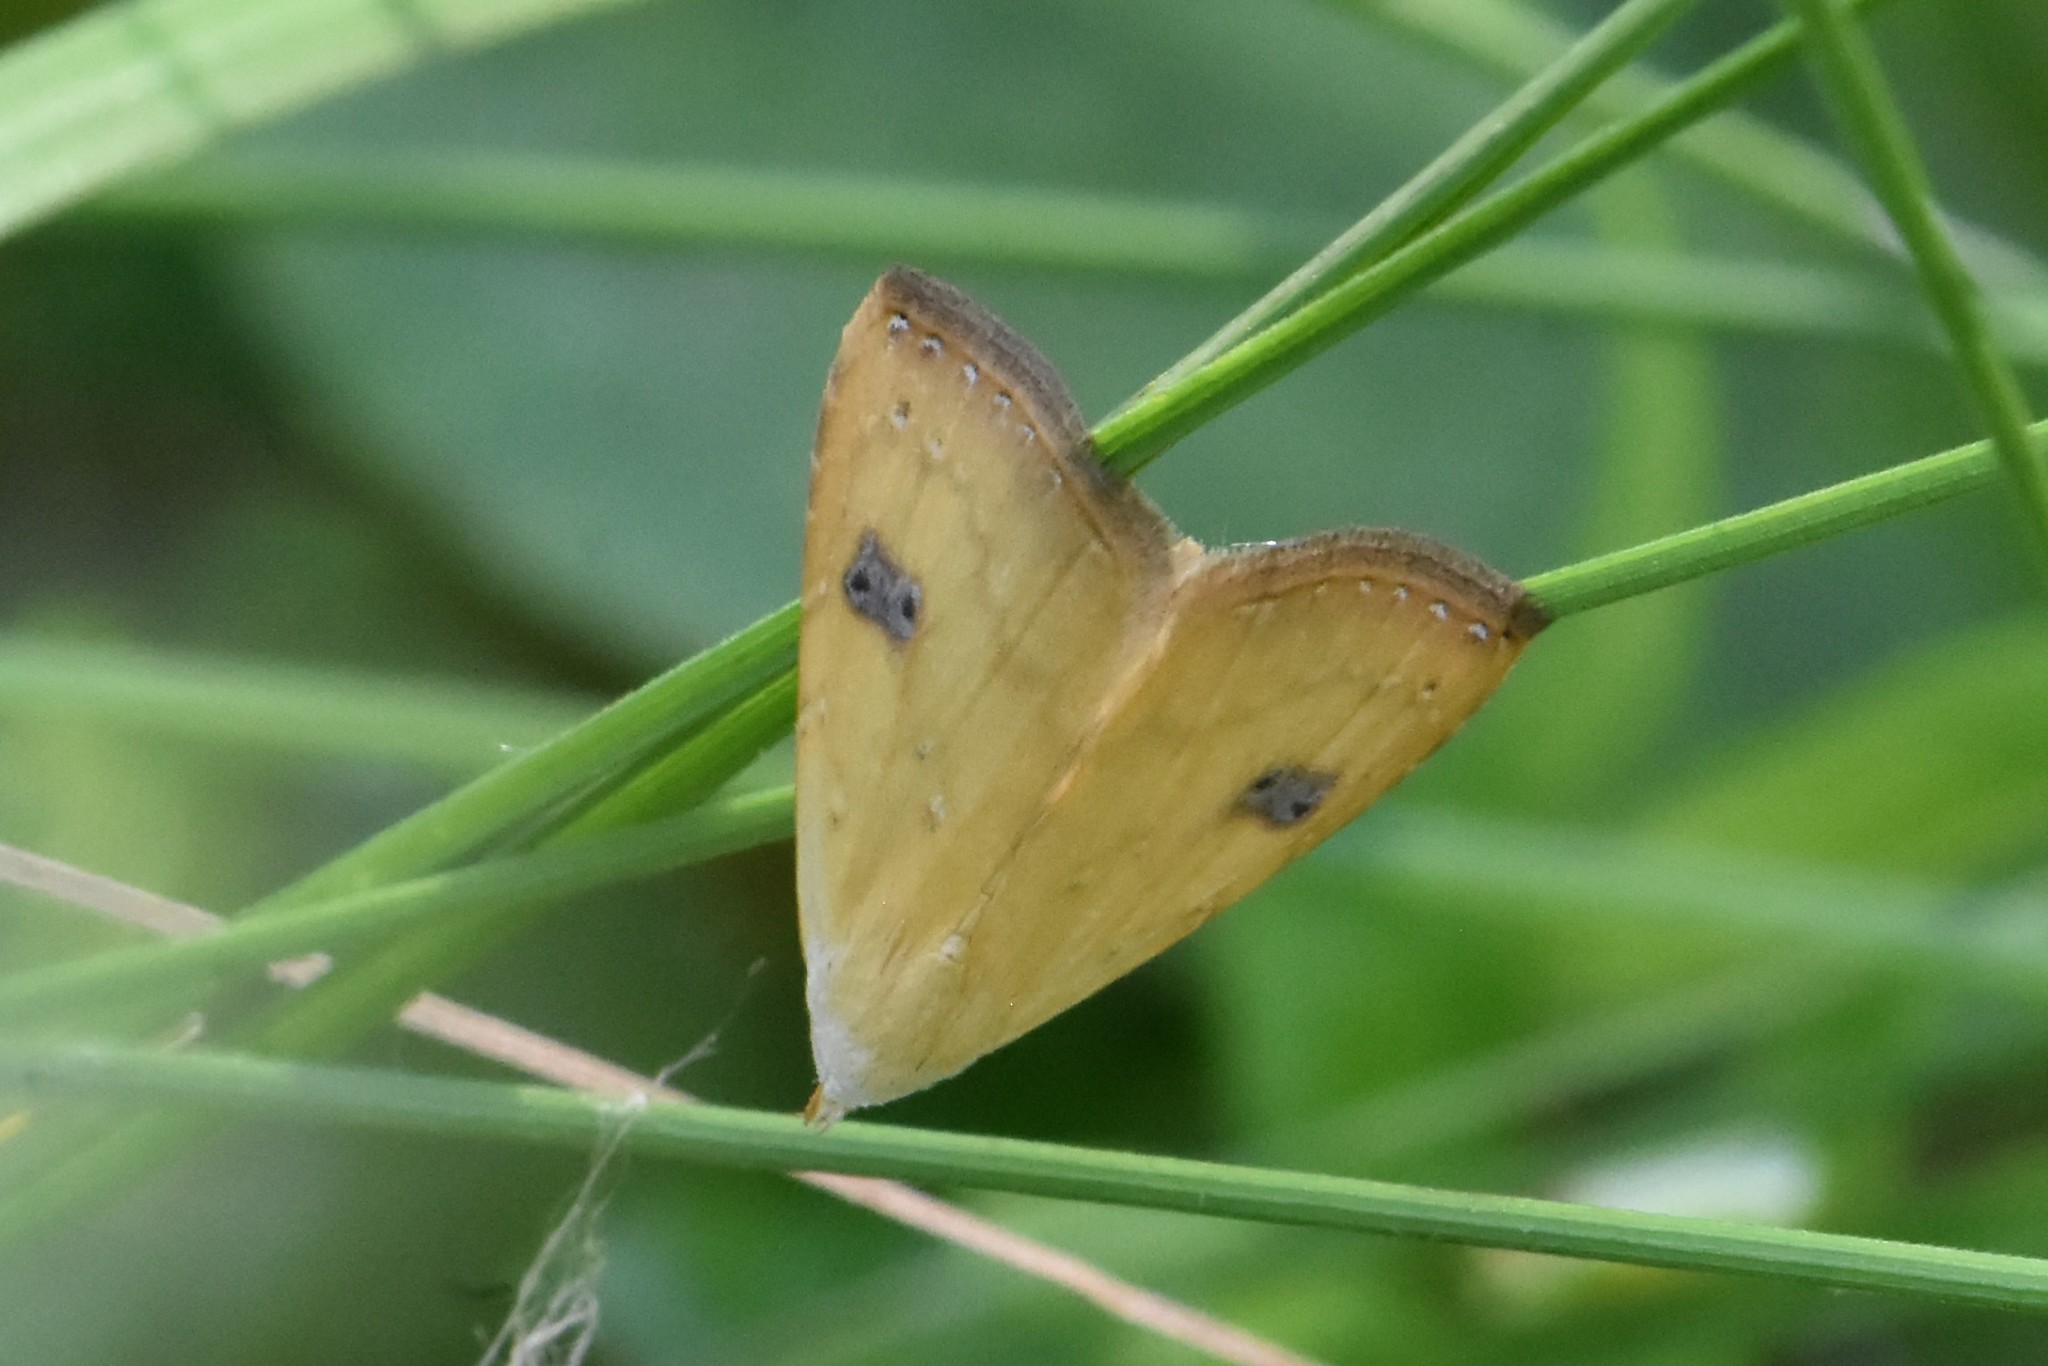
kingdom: Animalia
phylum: Arthropoda
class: Insecta
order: Lepidoptera
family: Erebidae
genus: Rivula
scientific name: Rivula sericealis
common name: Straw dot
